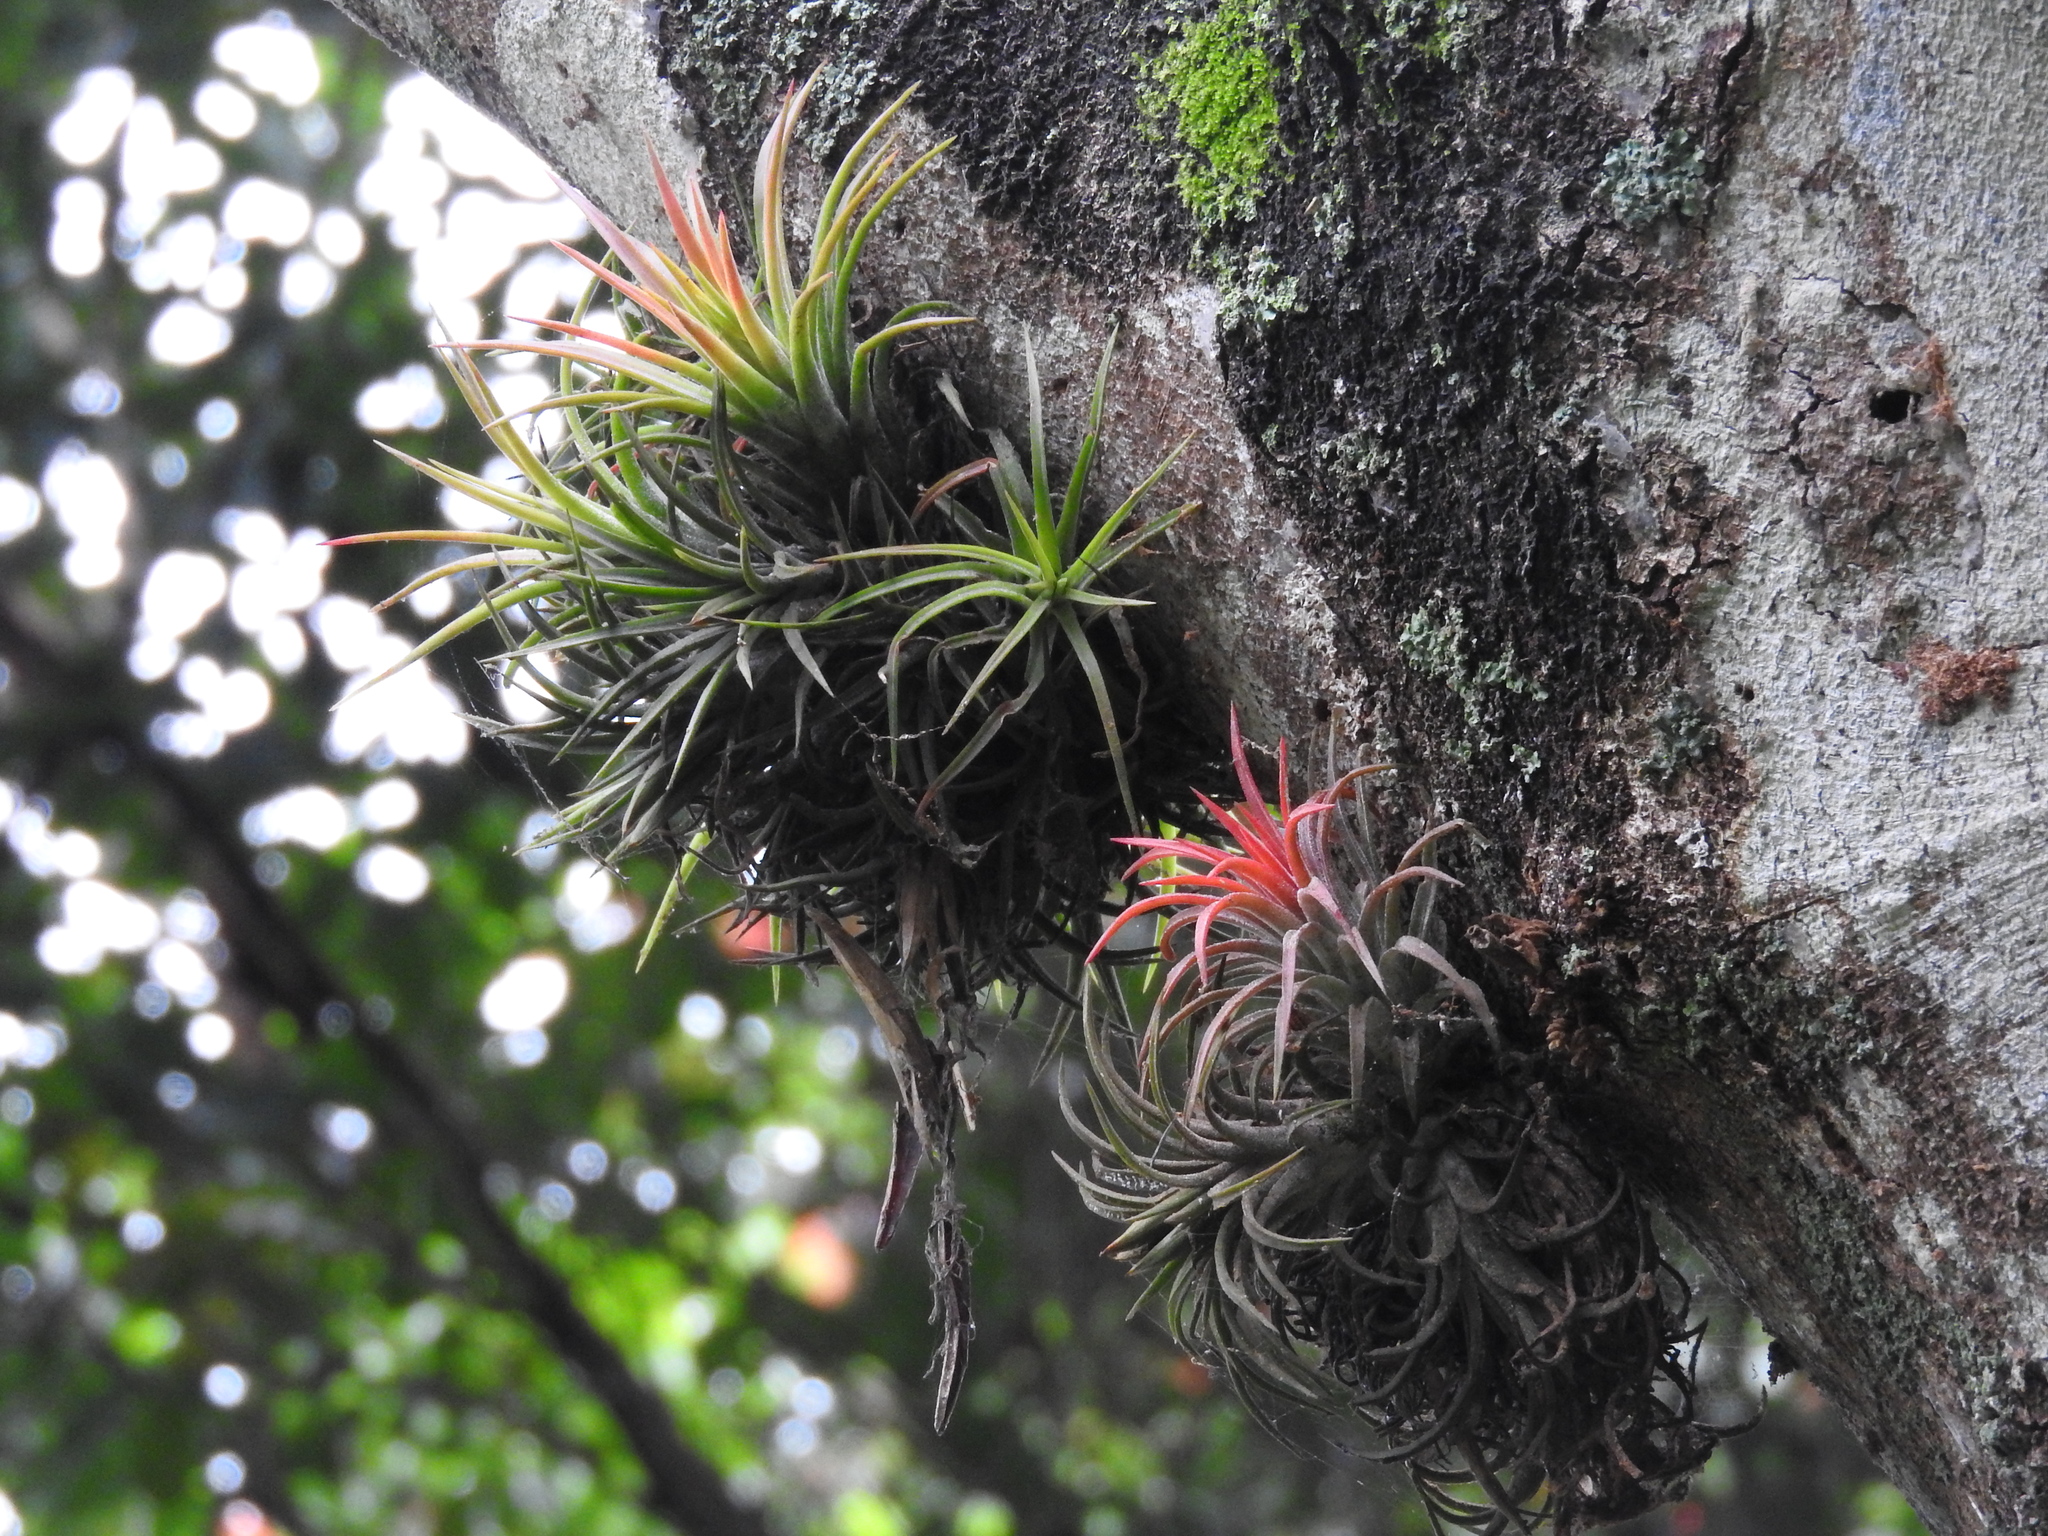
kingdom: Plantae
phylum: Tracheophyta
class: Liliopsida
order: Poales
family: Bromeliaceae
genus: Tillandsia
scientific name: Tillandsia ionantha
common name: Sky plant
